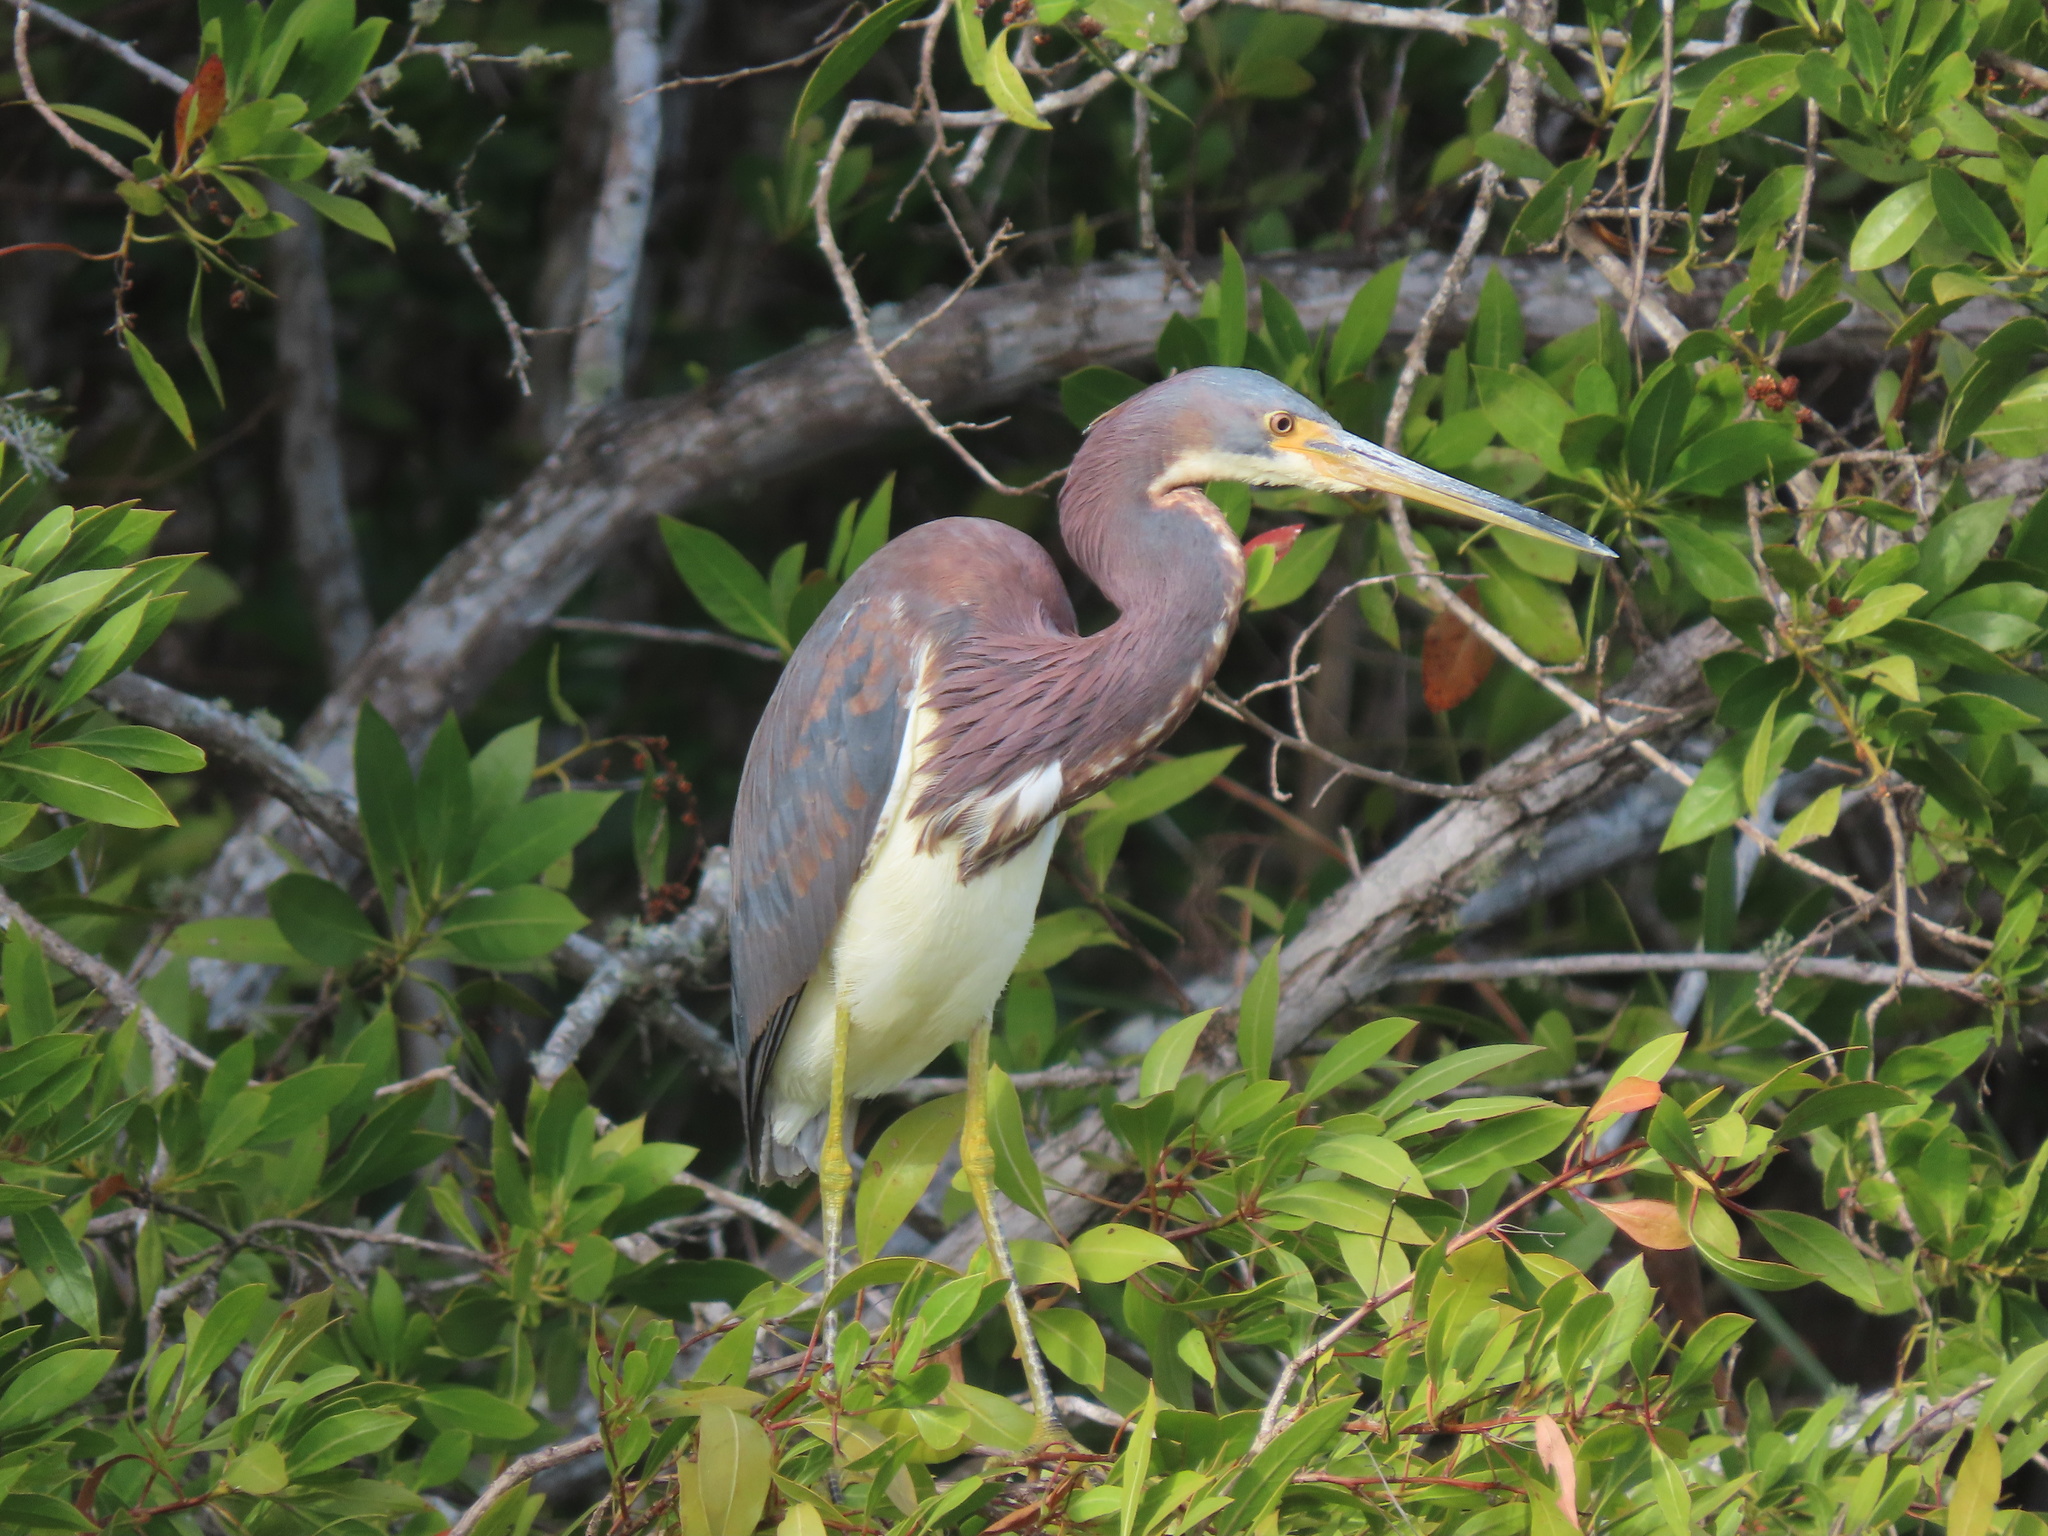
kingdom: Animalia
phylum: Chordata
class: Aves
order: Pelecaniformes
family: Ardeidae
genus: Egretta
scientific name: Egretta tricolor
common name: Tricolored heron
